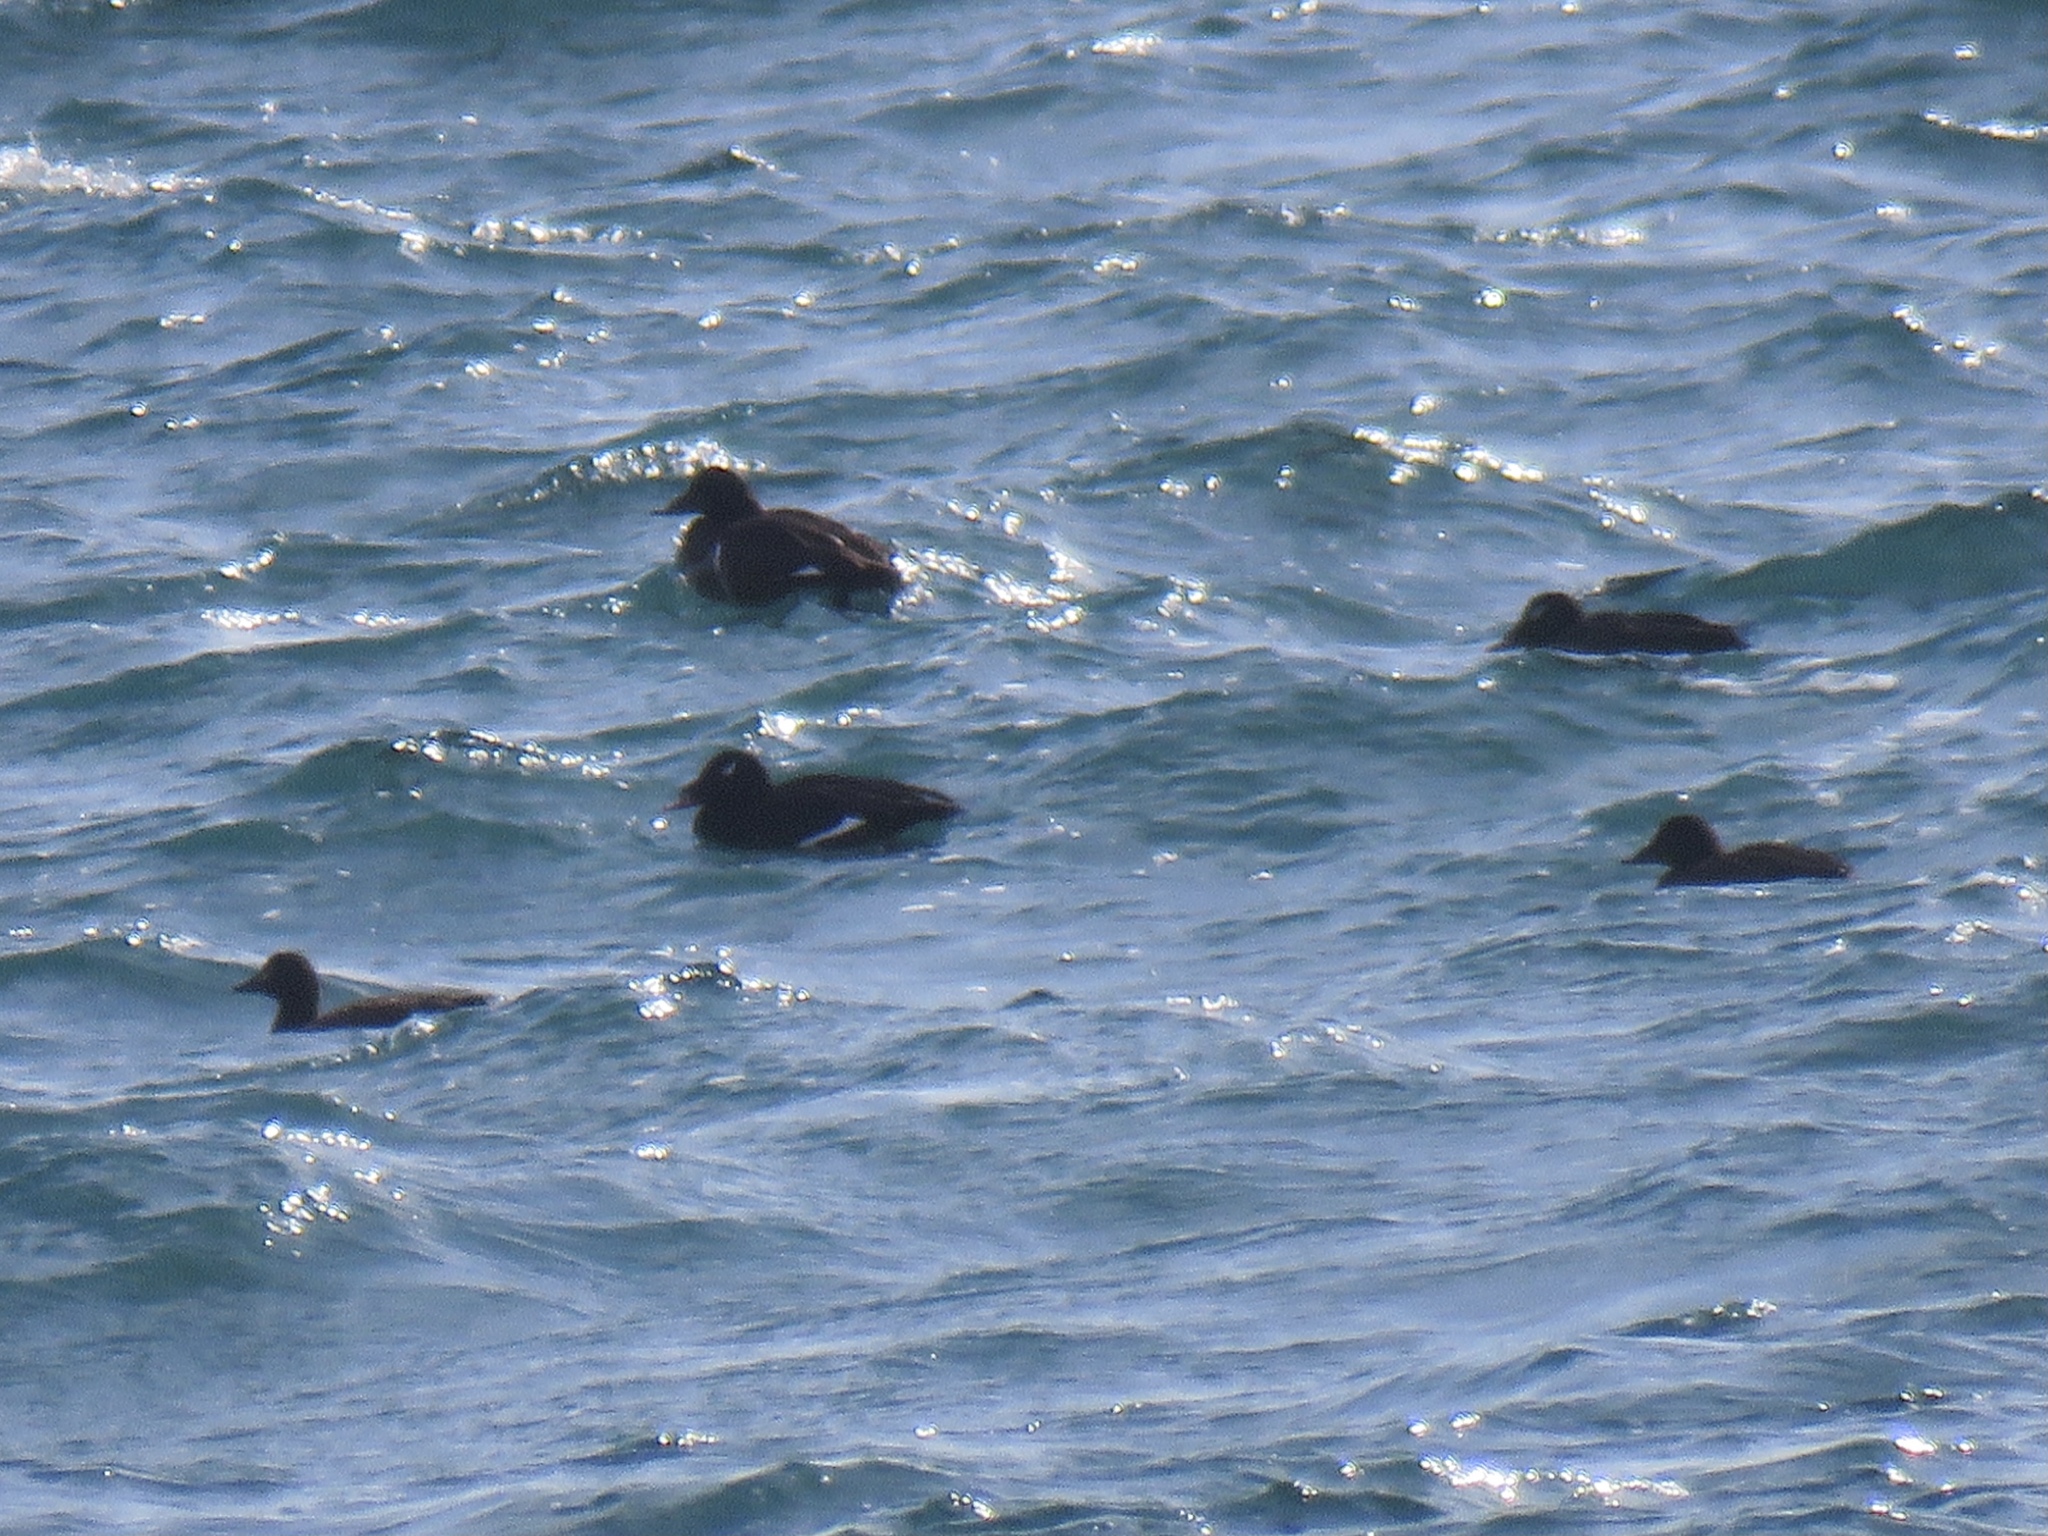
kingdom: Animalia
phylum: Chordata
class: Aves
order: Anseriformes
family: Anatidae
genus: Melanitta
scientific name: Melanitta deglandi
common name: White-winged scoter
